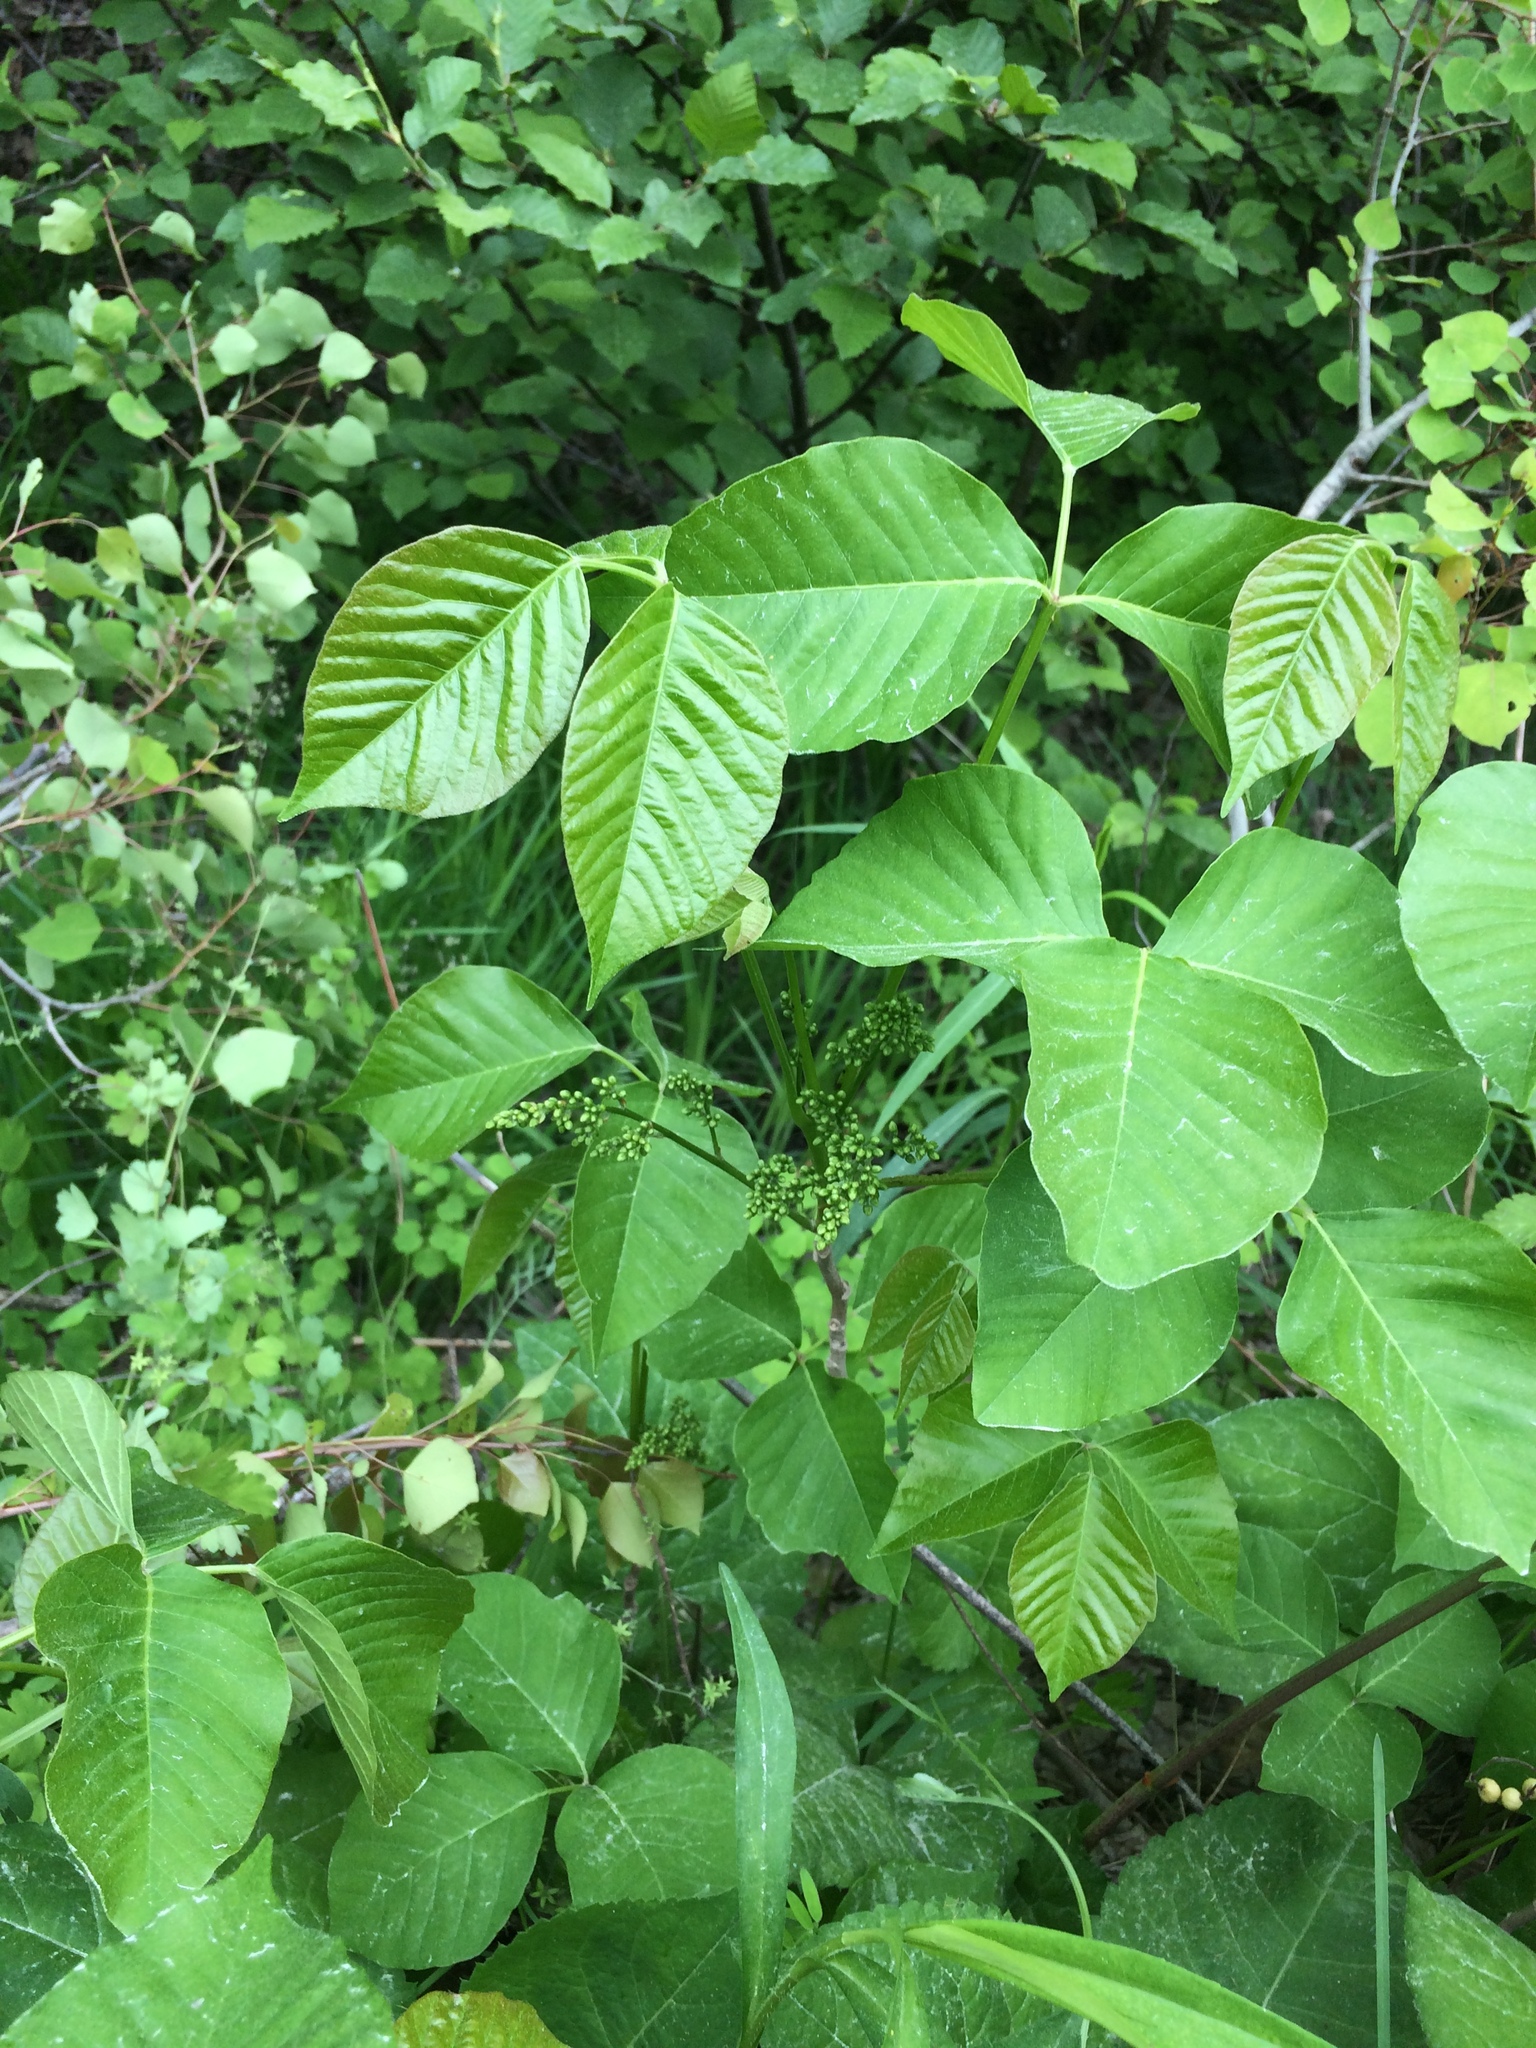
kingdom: Plantae
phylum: Tracheophyta
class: Magnoliopsida
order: Sapindales
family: Anacardiaceae
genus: Toxicodendron
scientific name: Toxicodendron rydbergii
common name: Rydberg's poison-ivy
